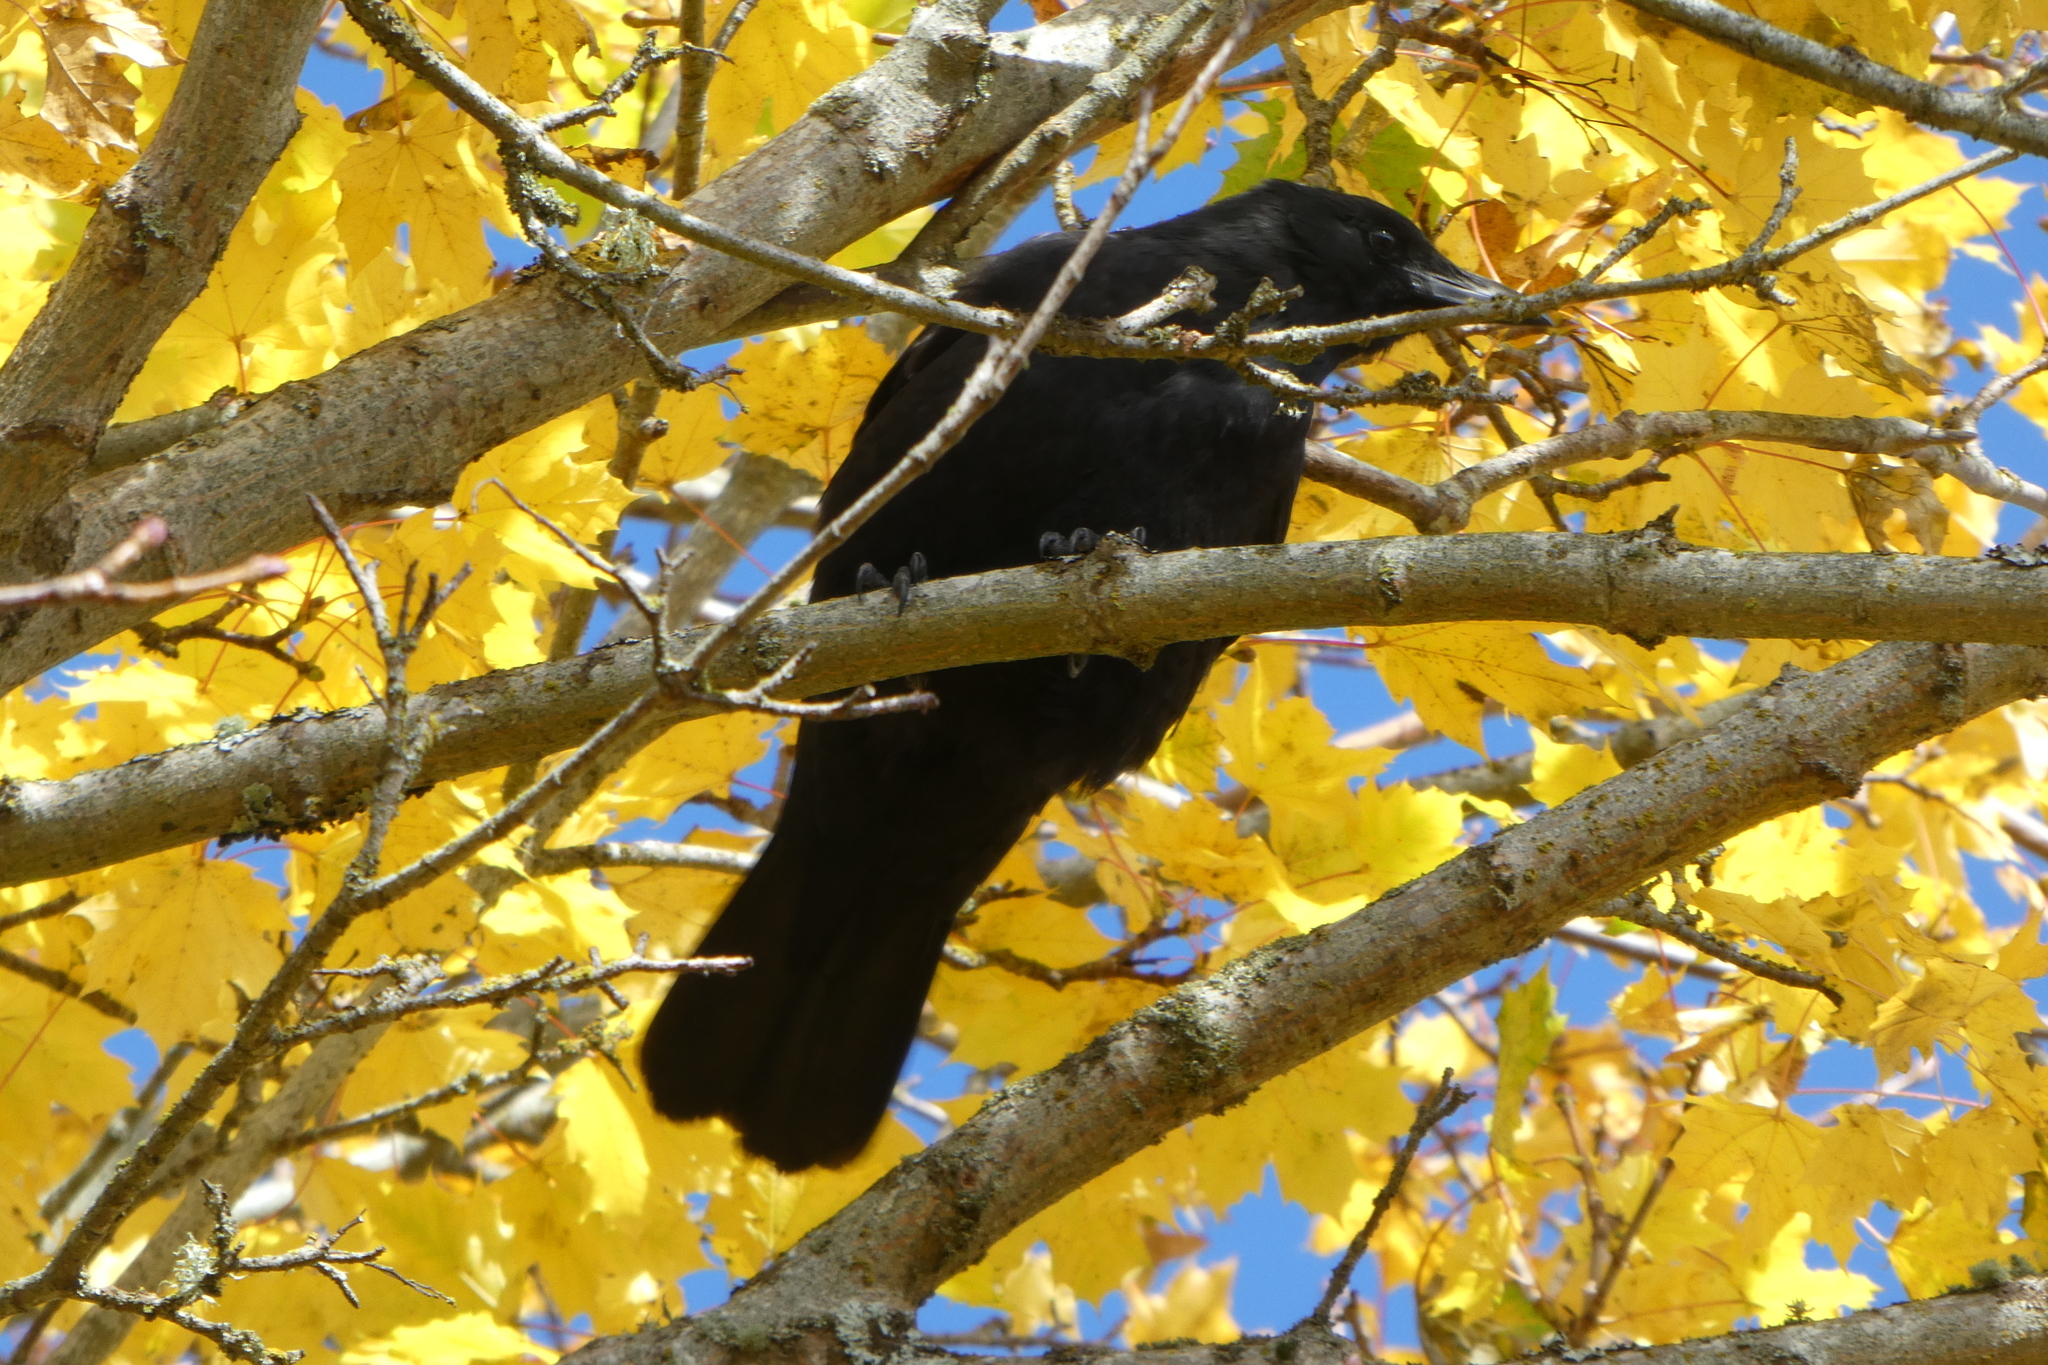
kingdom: Animalia
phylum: Chordata
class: Aves
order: Passeriformes
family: Corvidae
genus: Corvus
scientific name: Corvus brachyrhynchos
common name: American crow
